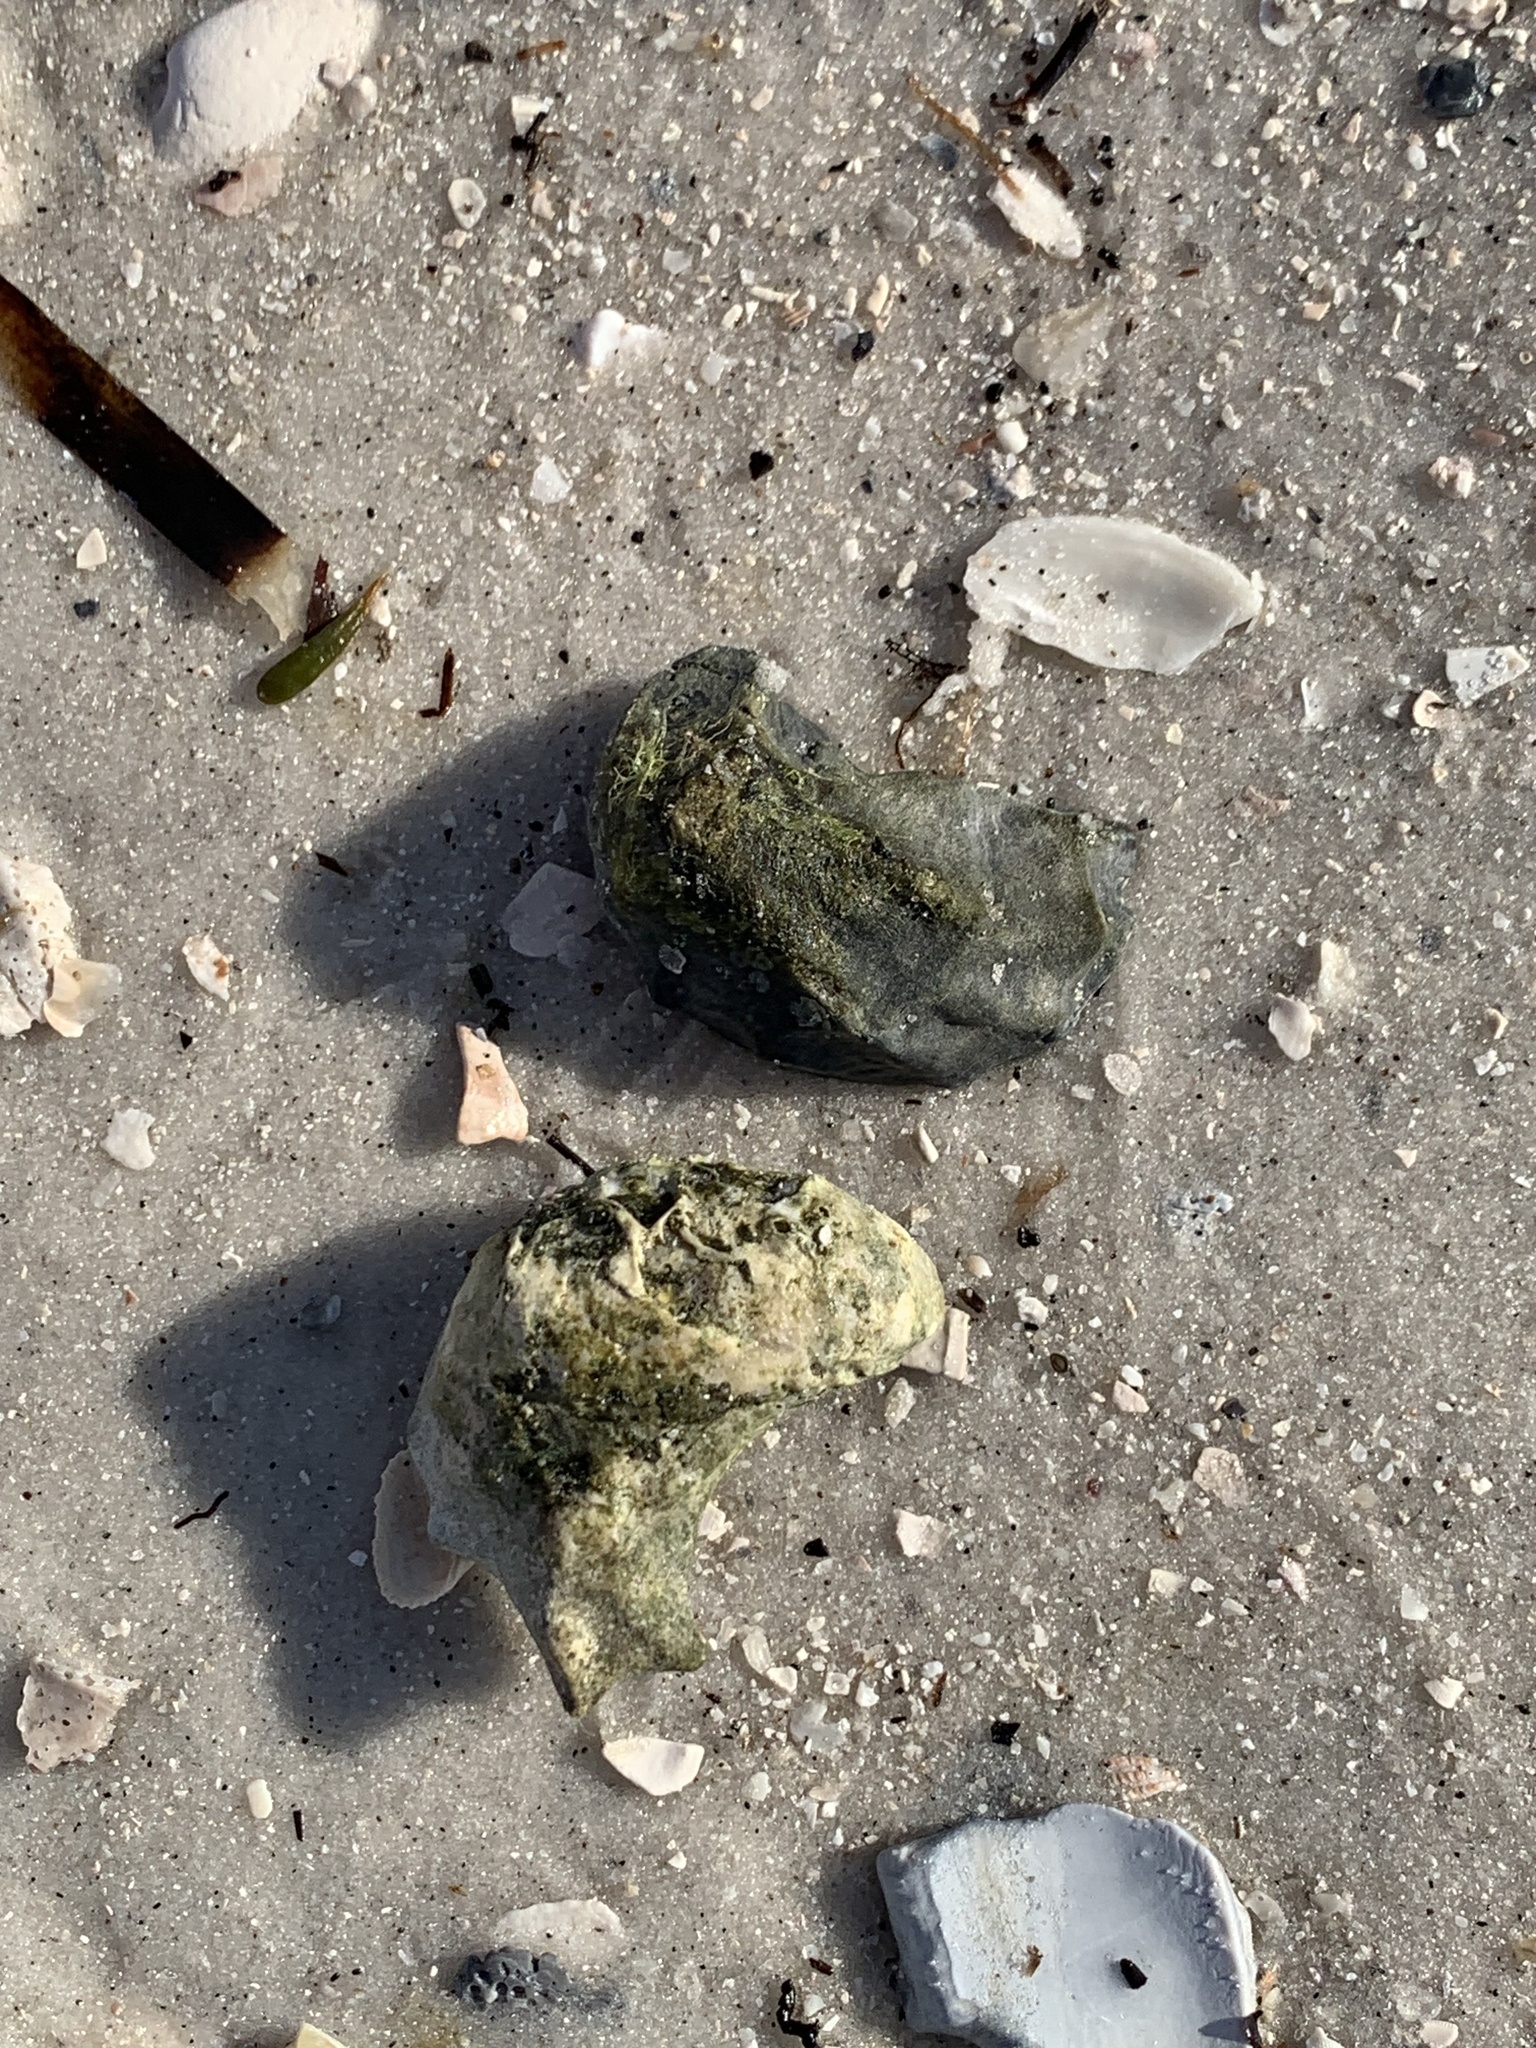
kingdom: Animalia
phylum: Mollusca
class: Bivalvia
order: Ostreida
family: Ostreidae
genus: Crassostrea
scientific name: Crassostrea virginica
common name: American oyster
